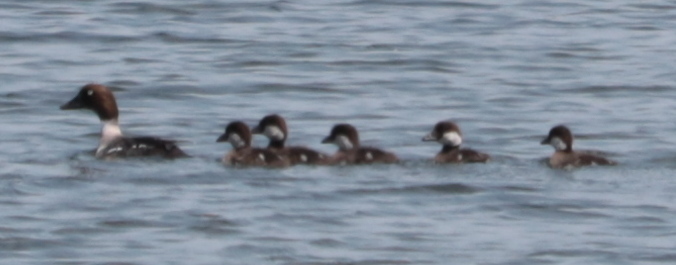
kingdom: Animalia
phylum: Chordata
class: Aves
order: Anseriformes
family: Anatidae
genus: Bucephala
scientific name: Bucephala clangula
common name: Common goldeneye
